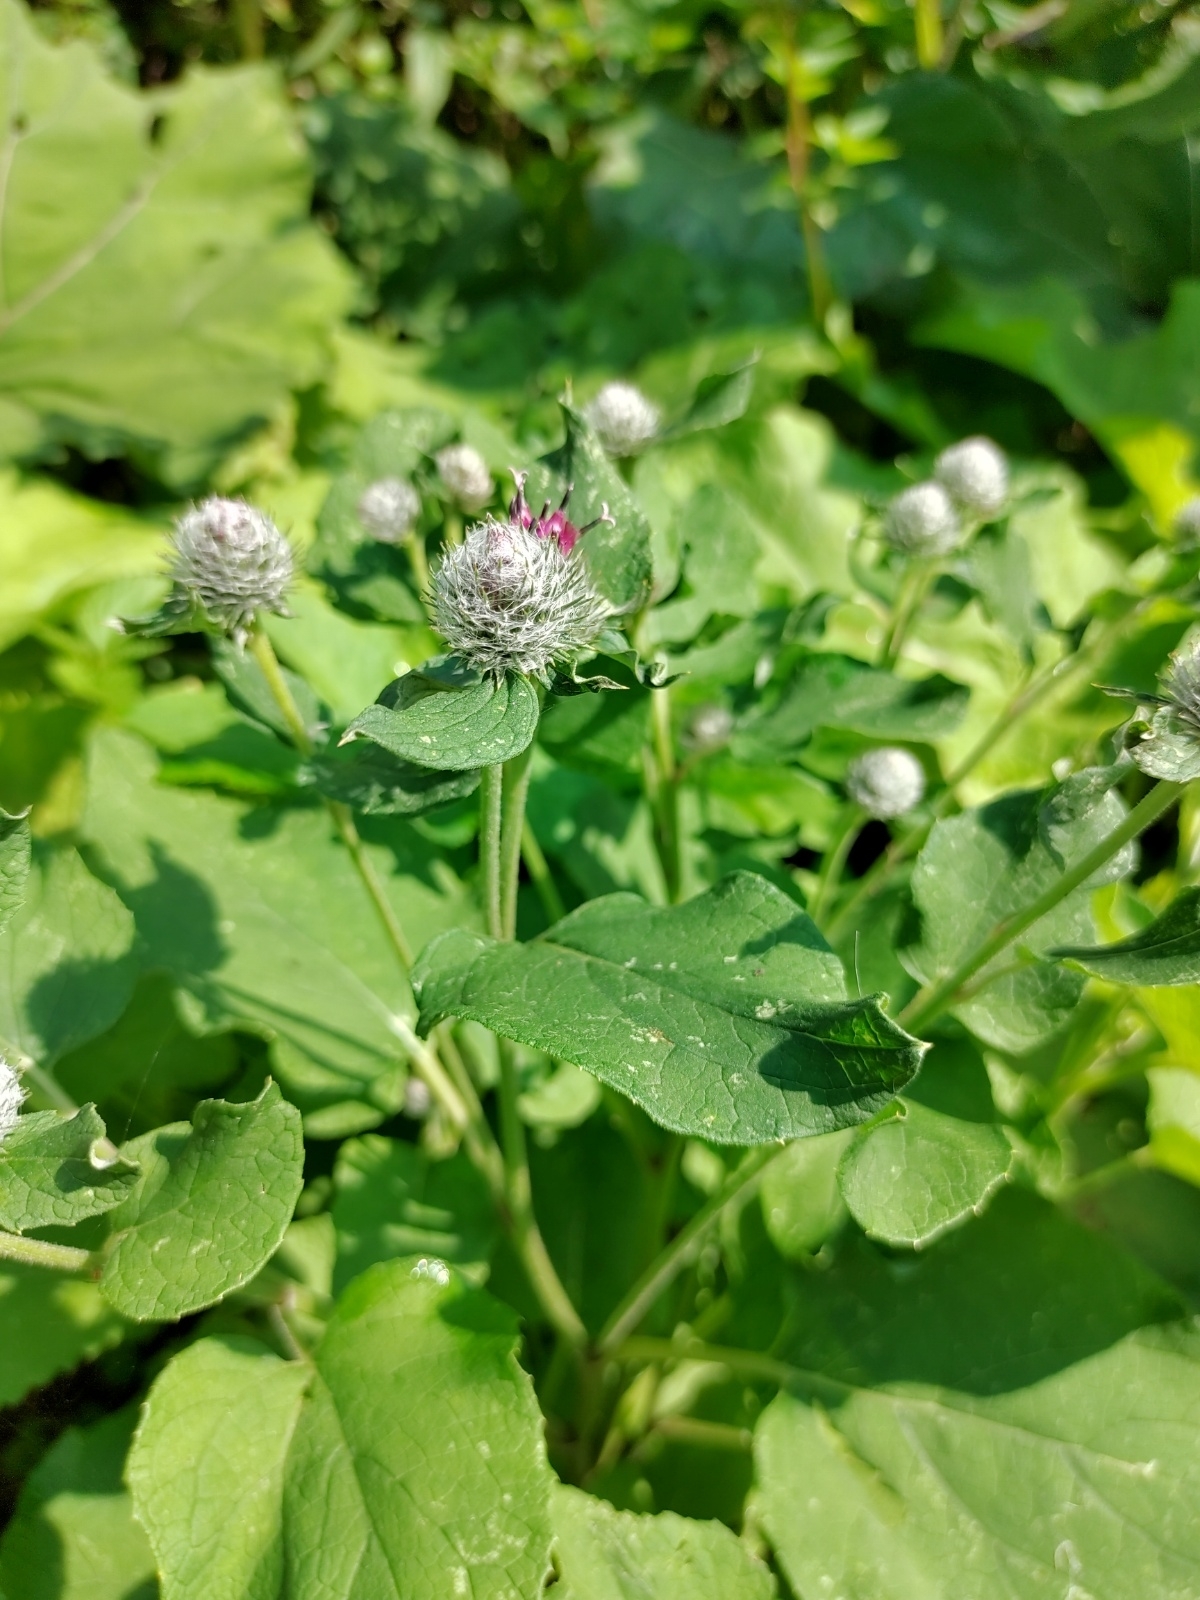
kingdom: Plantae
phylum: Tracheophyta
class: Magnoliopsida
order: Asterales
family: Asteraceae
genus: Arctium
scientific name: Arctium tomentosum
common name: Woolly burdock
